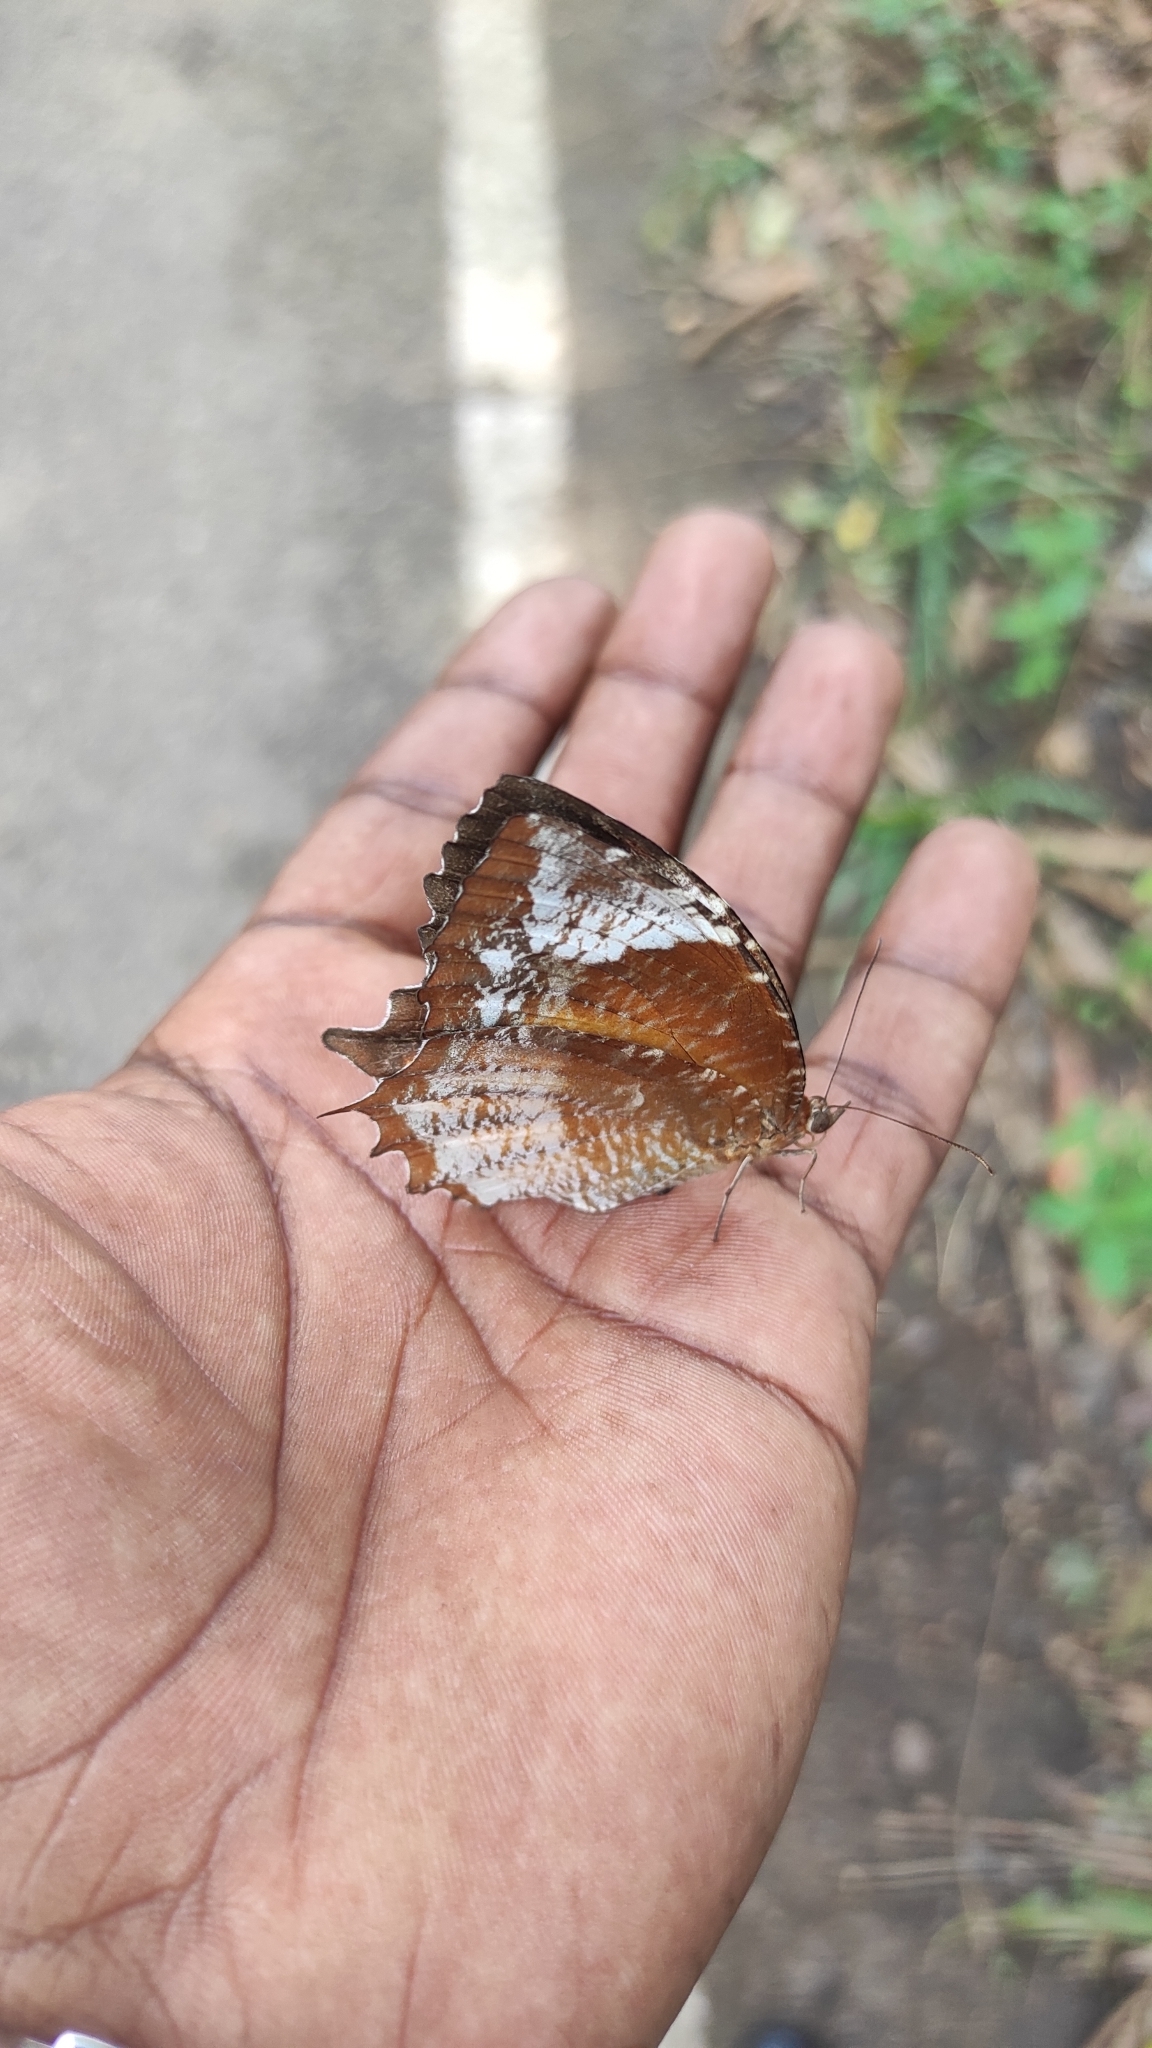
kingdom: Animalia
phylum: Arthropoda
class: Insecta
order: Lepidoptera
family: Nymphalidae
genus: Elymnias
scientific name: Elymnias caudata
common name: Tailed palmfly
